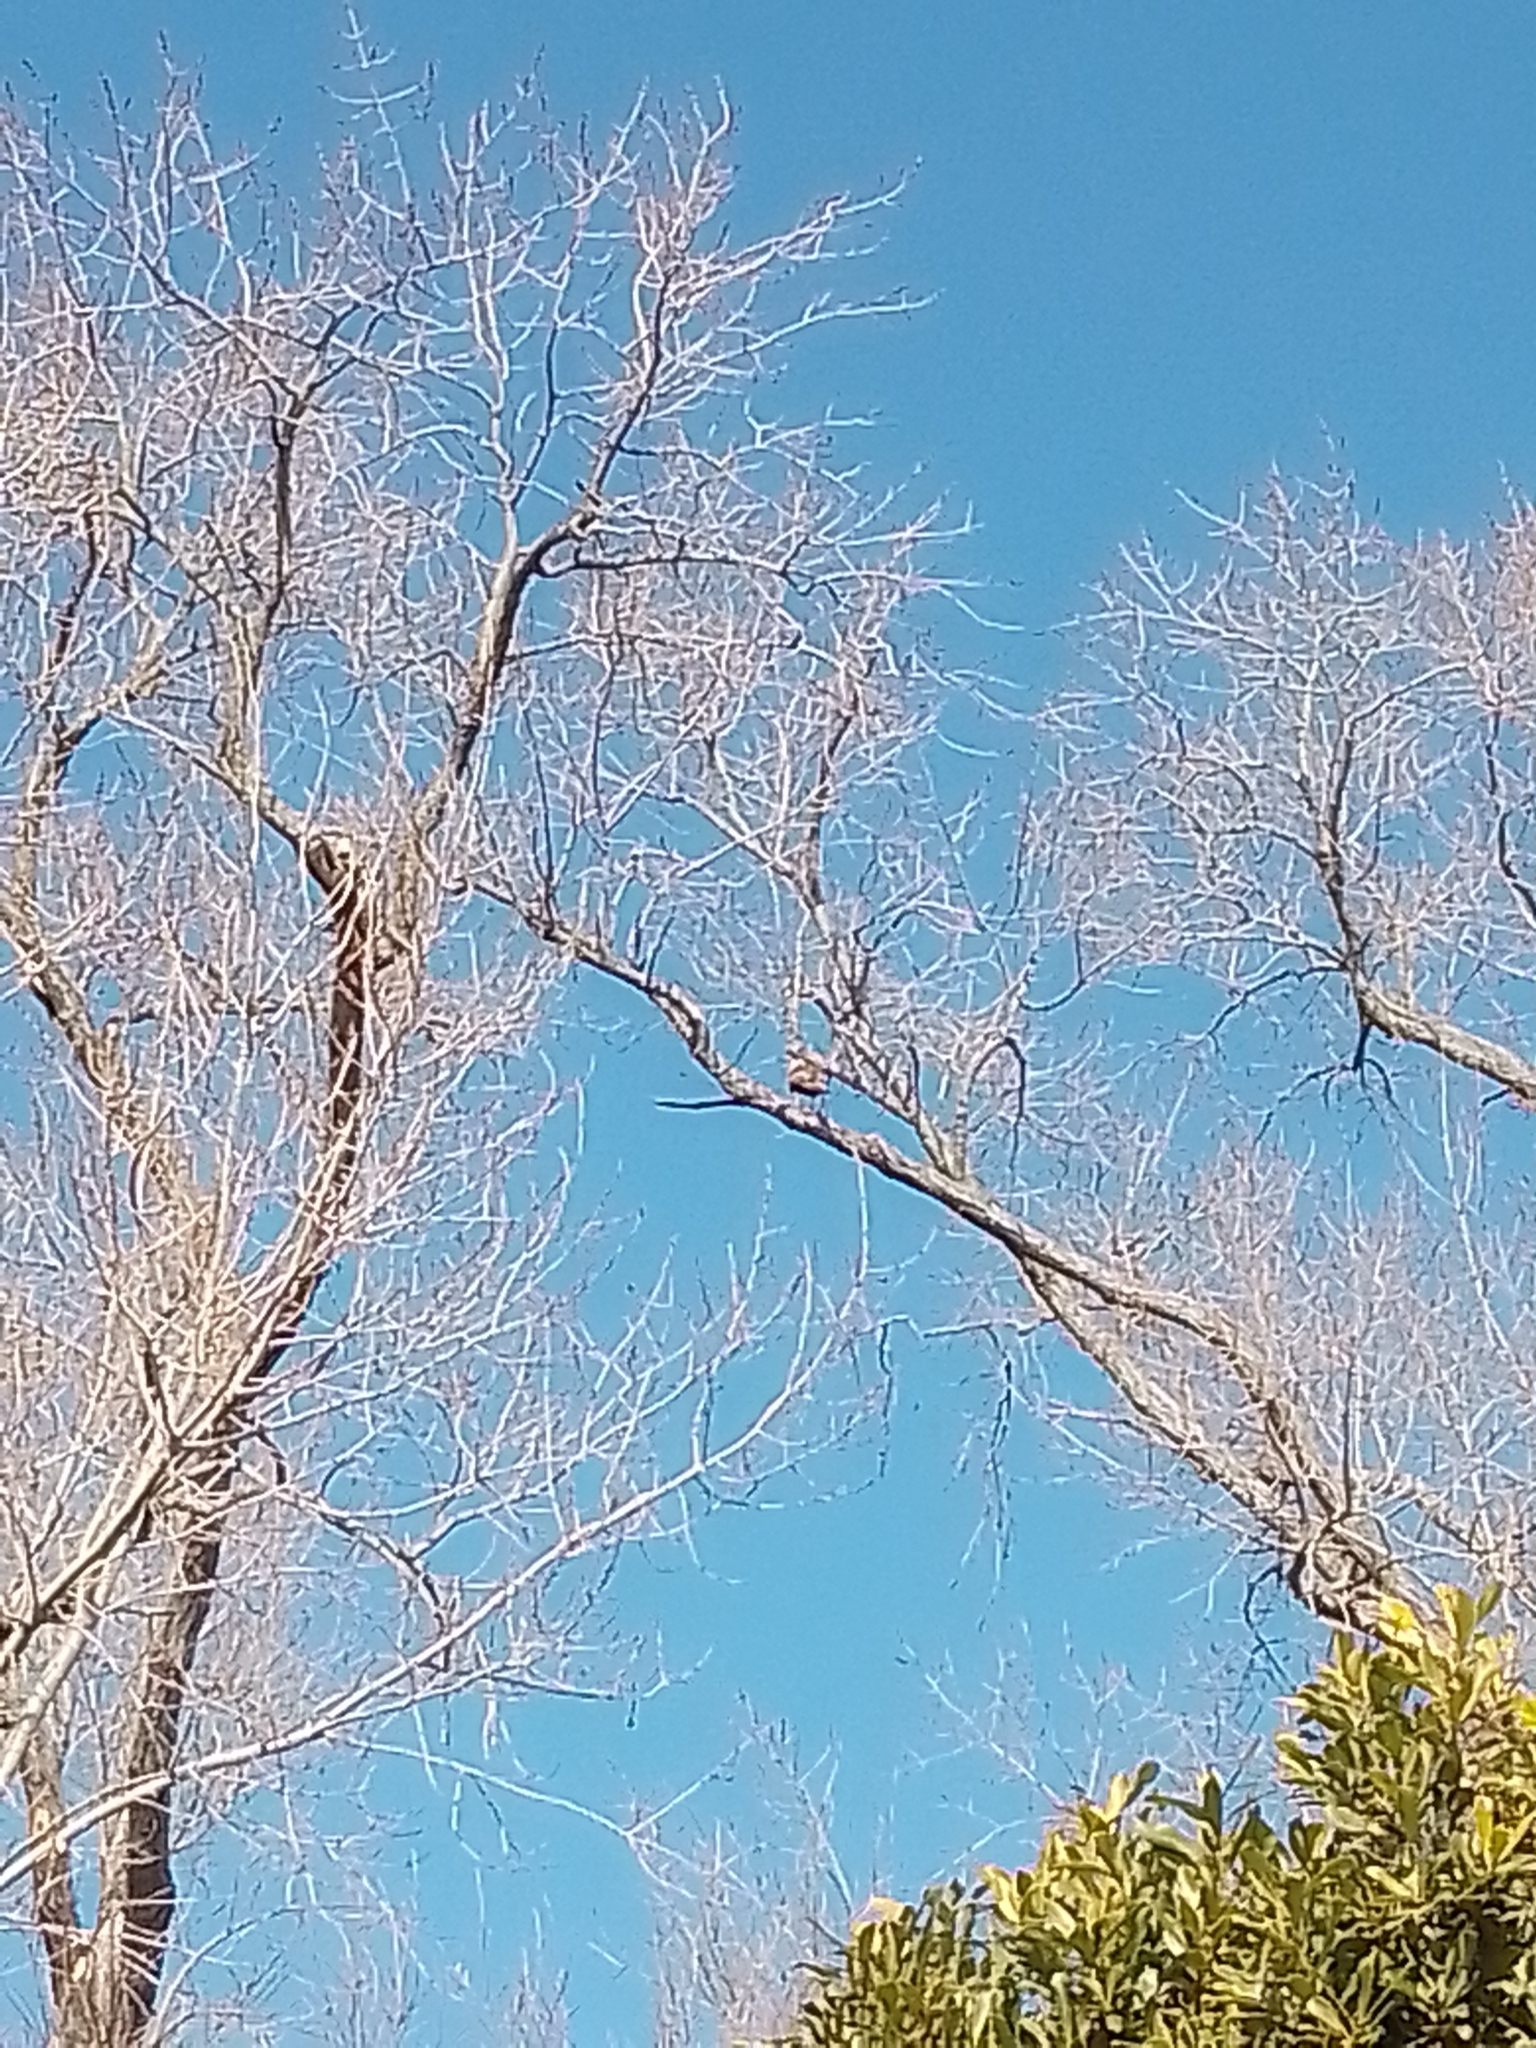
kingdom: Animalia
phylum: Chordata
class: Aves
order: Falconiformes
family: Falconidae
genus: Caracara
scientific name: Caracara plancus
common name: Southern caracara
